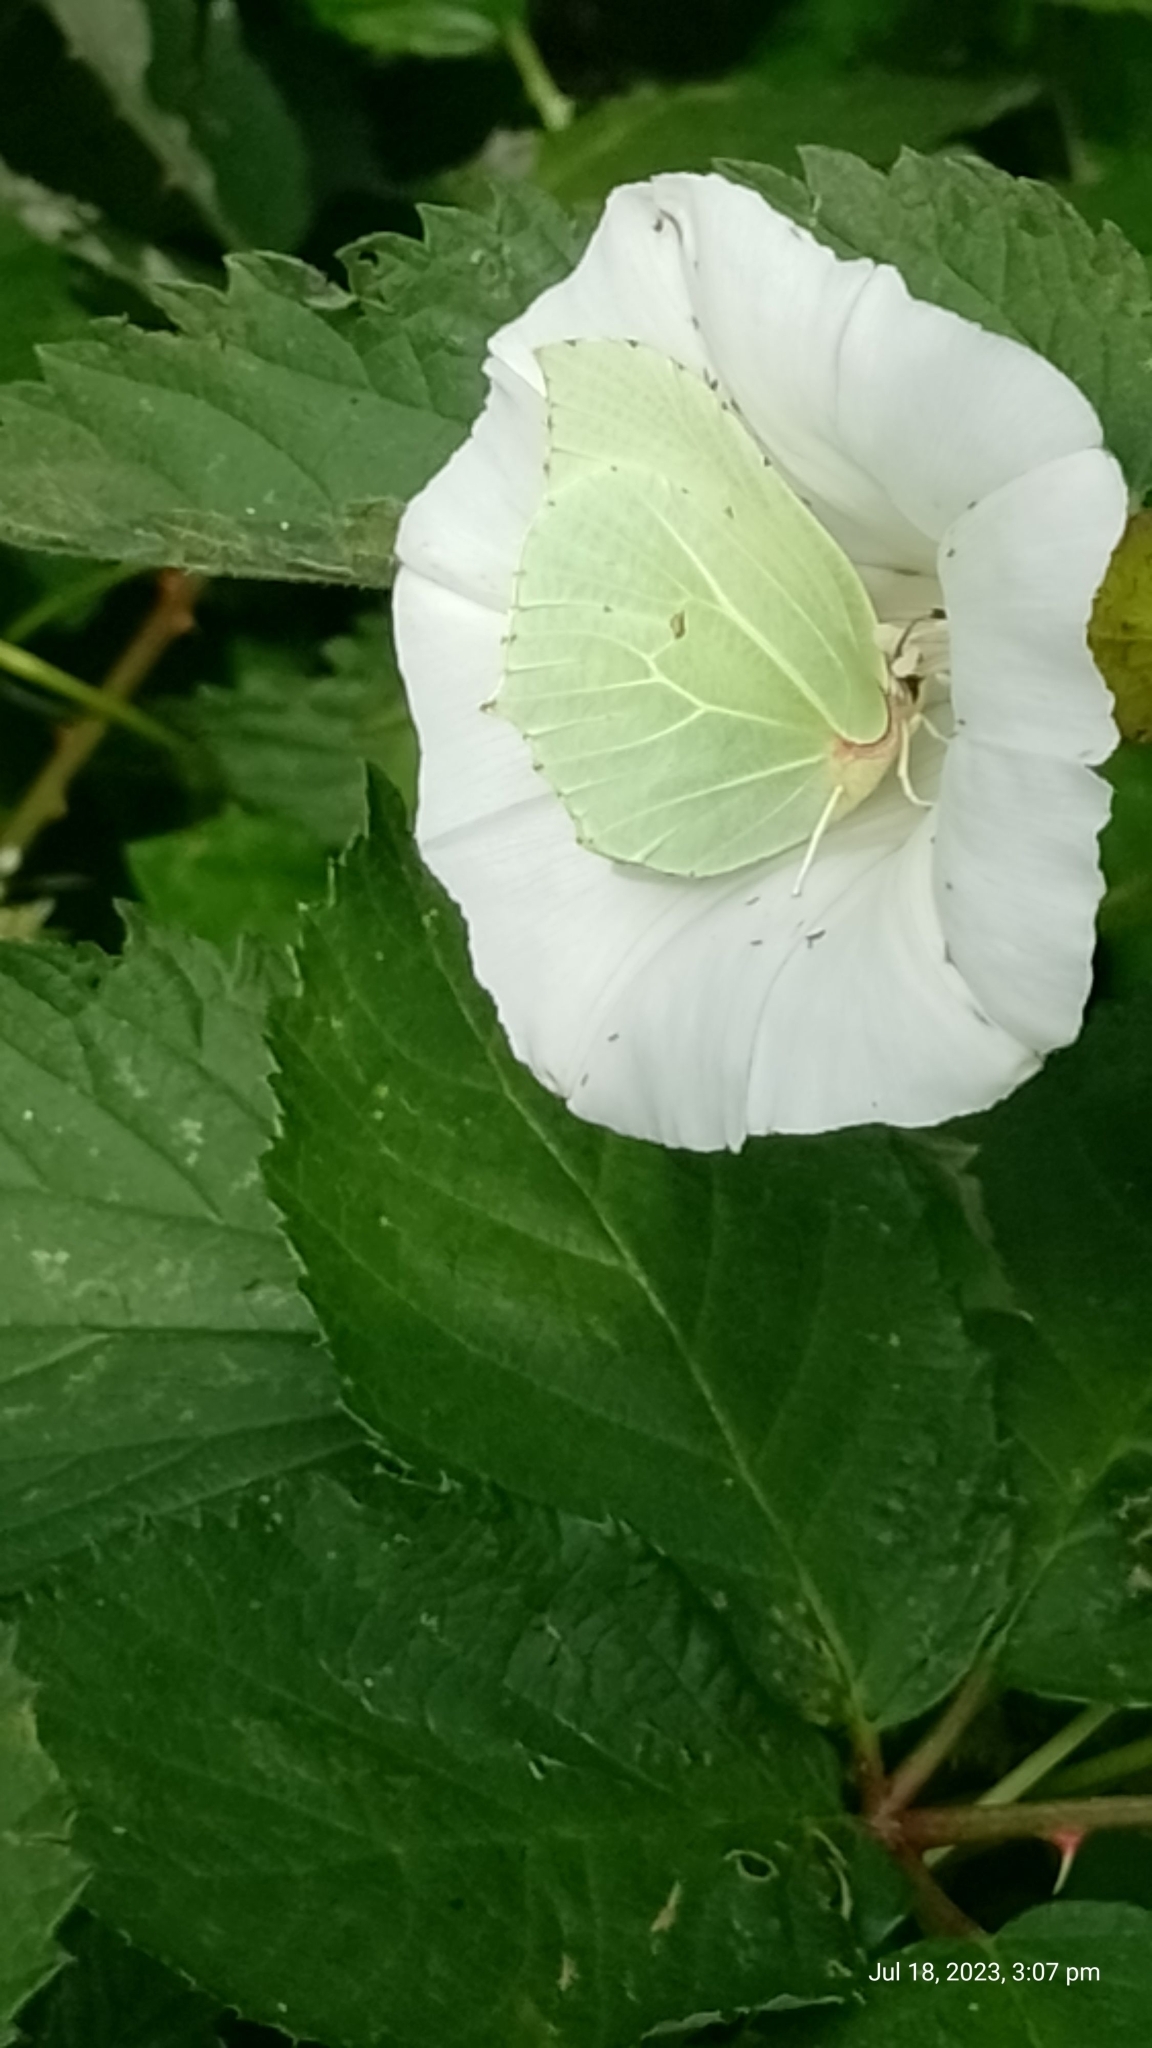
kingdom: Animalia
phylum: Arthropoda
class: Insecta
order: Lepidoptera
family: Pieridae
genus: Gonepteryx
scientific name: Gonepteryx rhamni
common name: Brimstone
